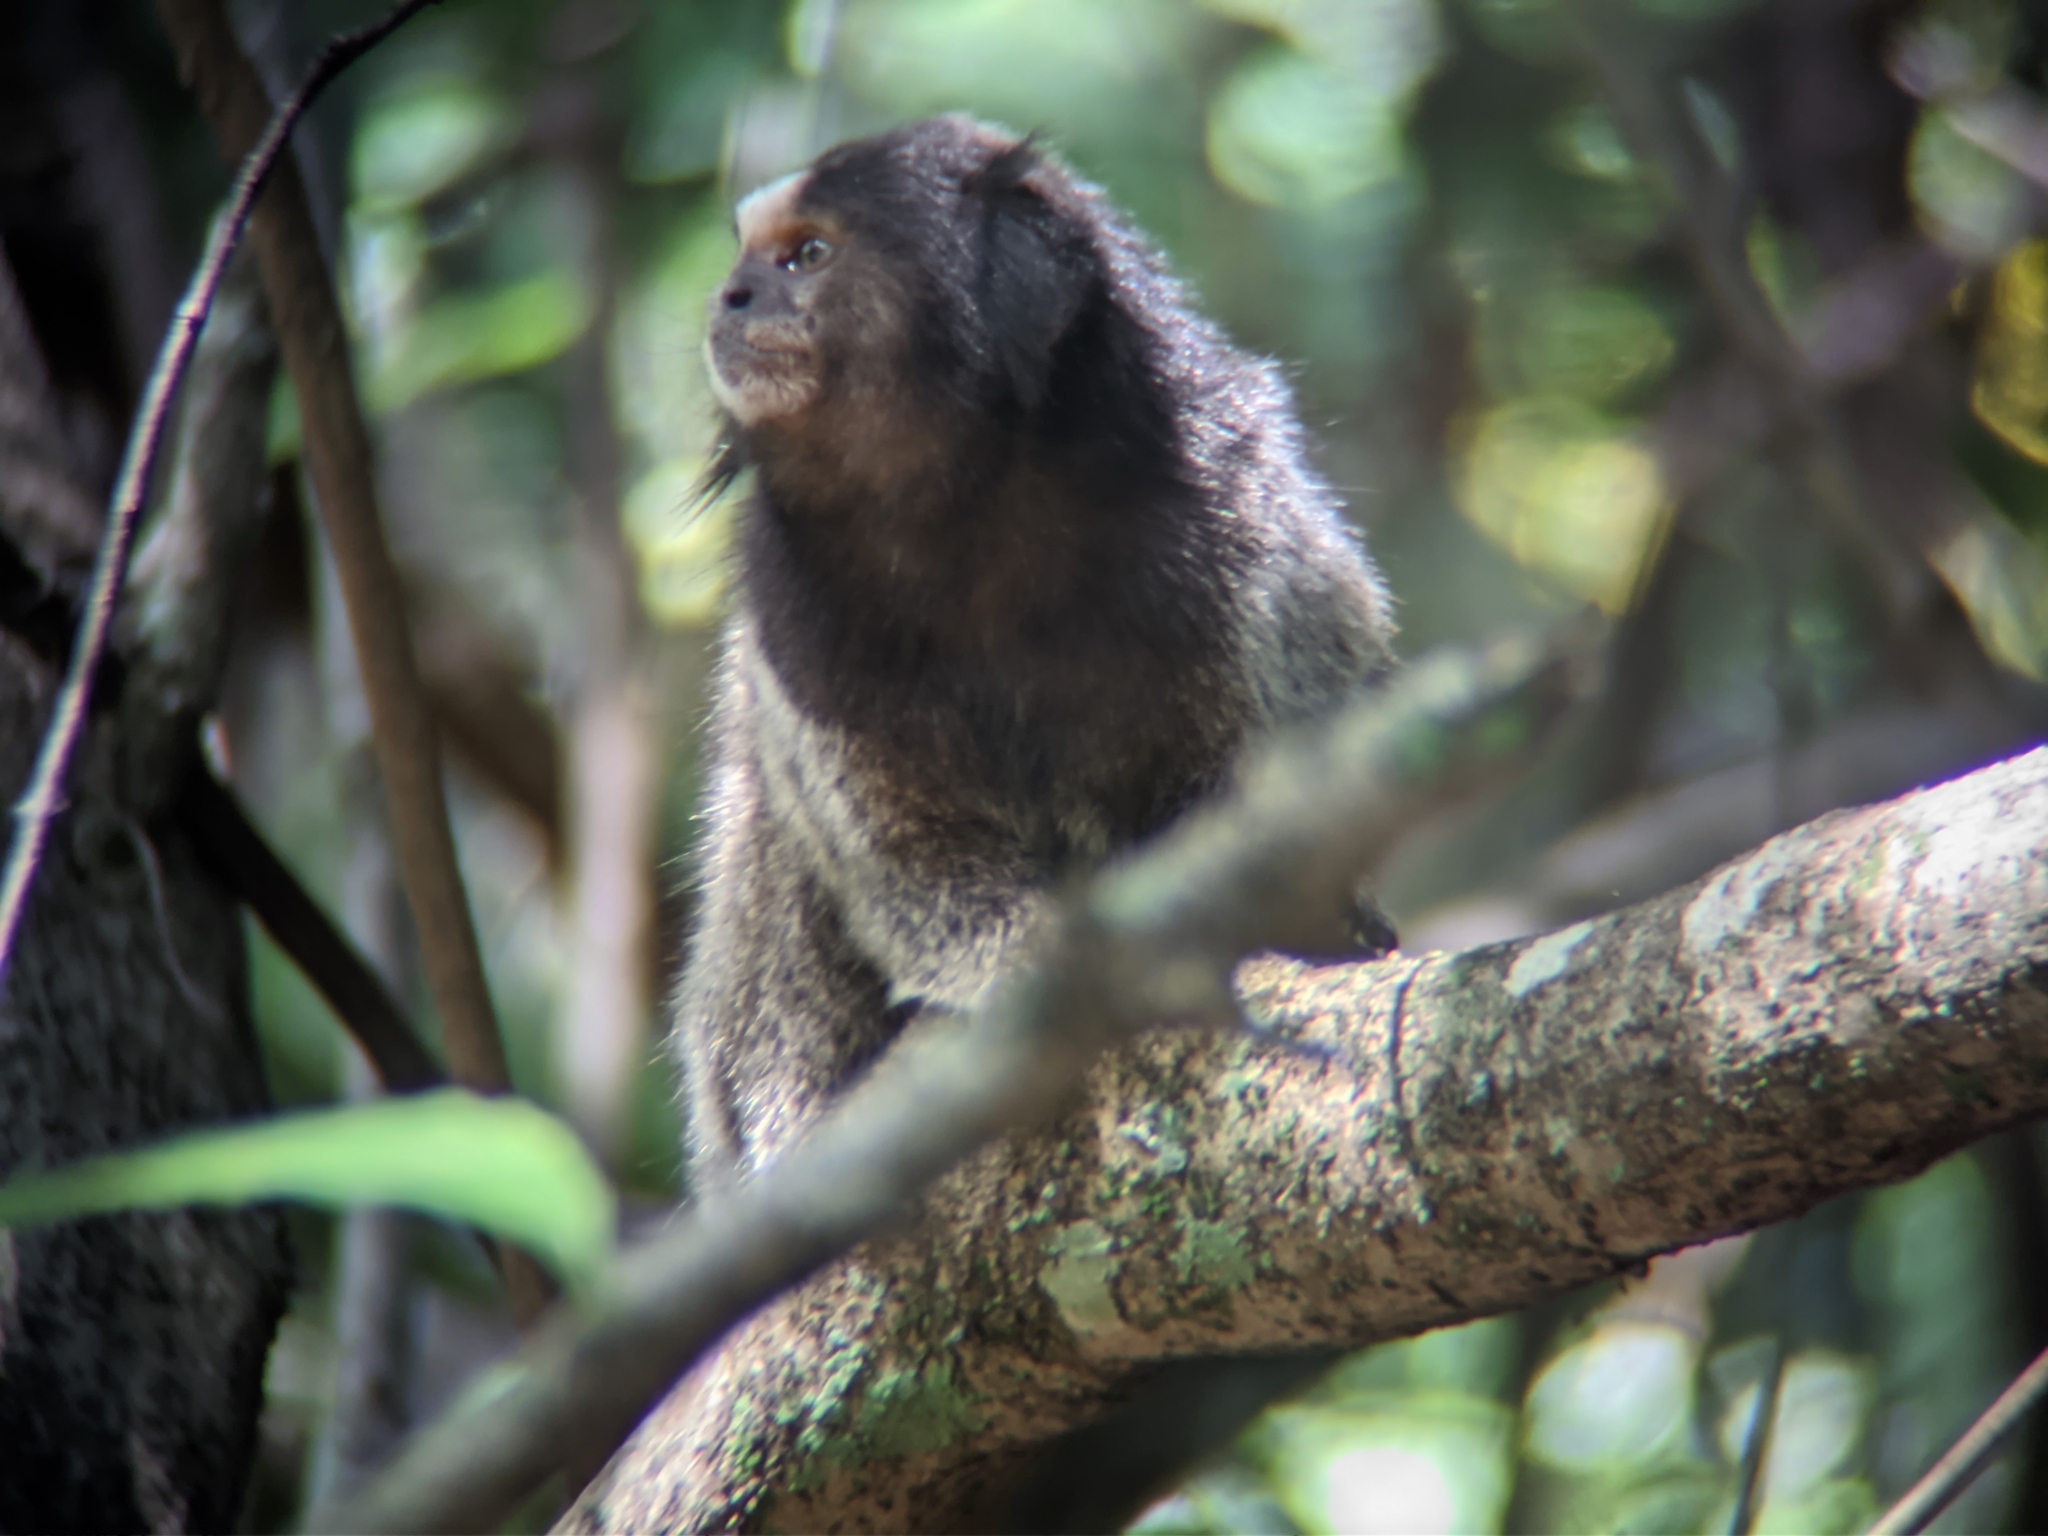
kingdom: Animalia
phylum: Chordata
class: Mammalia
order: Primates
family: Callitrichidae
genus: Callithrix
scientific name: Callithrix penicillata
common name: Black-tufted marmoset
